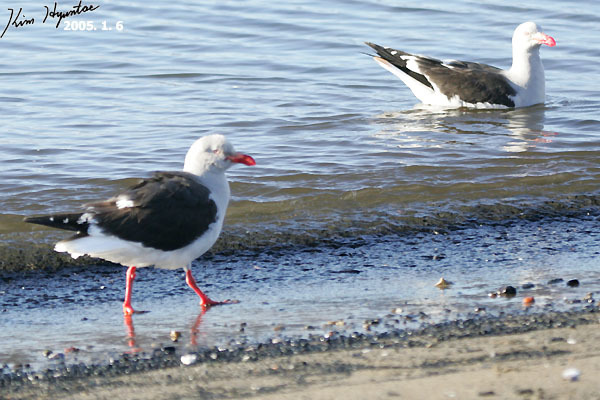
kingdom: Animalia
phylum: Chordata
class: Aves
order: Charadriiformes
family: Laridae
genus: Leucophaeus
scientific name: Leucophaeus scoresbii
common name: Dolphin gull
